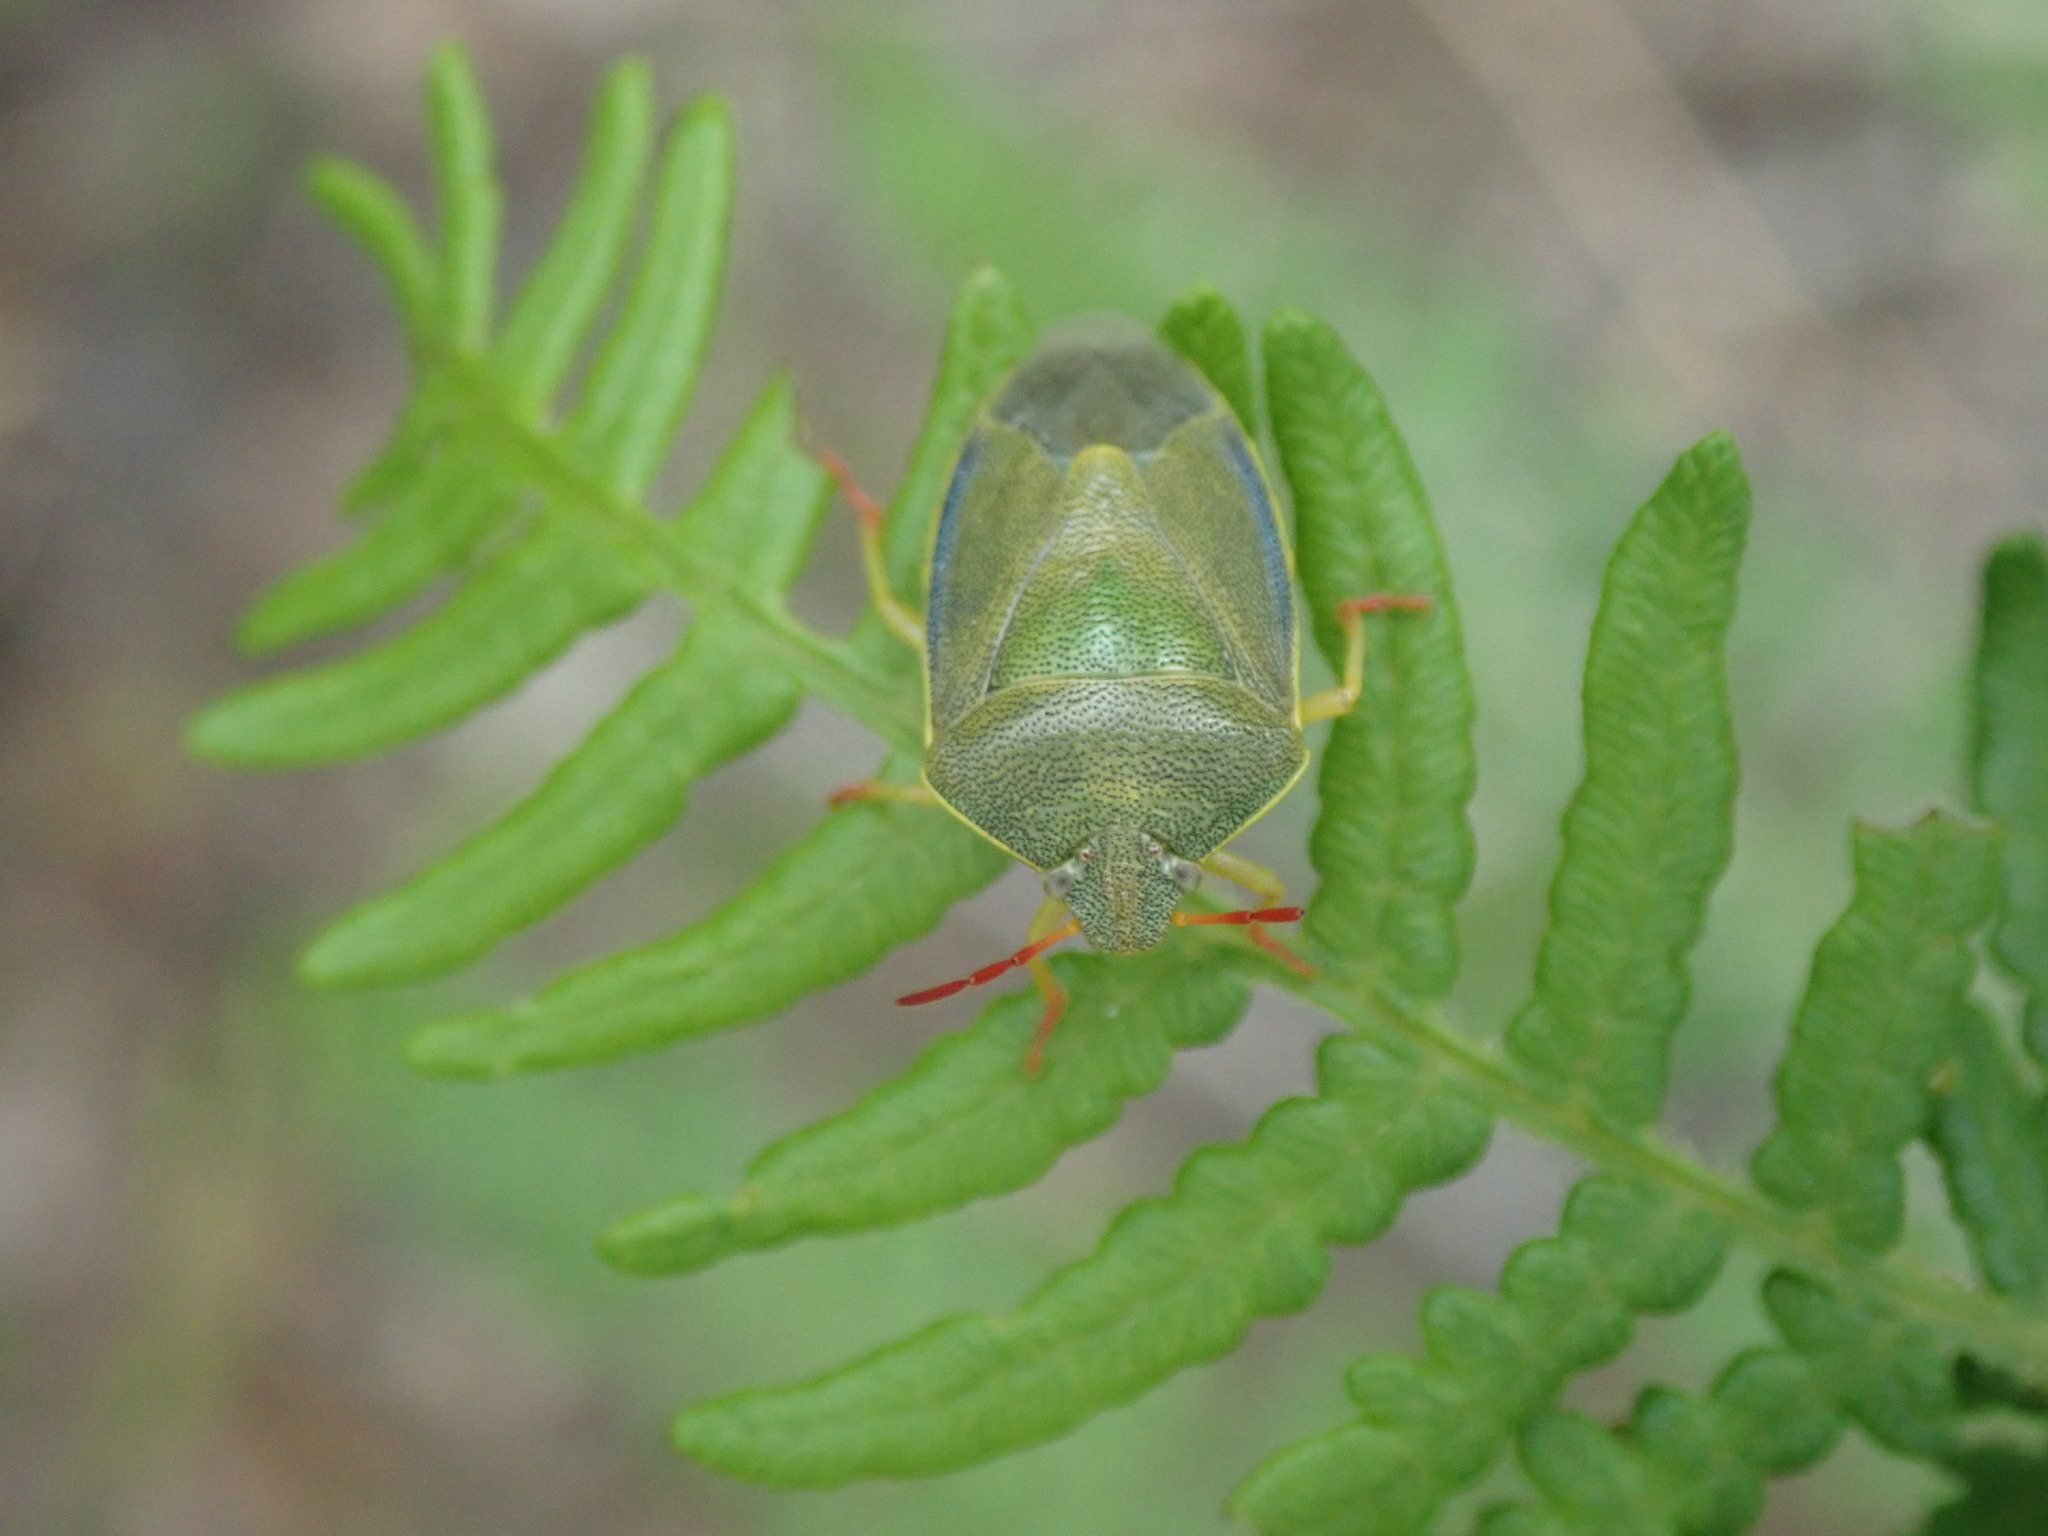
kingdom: Animalia
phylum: Arthropoda
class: Insecta
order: Hemiptera
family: Pentatomidae
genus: Piezodorus
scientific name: Piezodorus lituratus
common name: Stink bug
